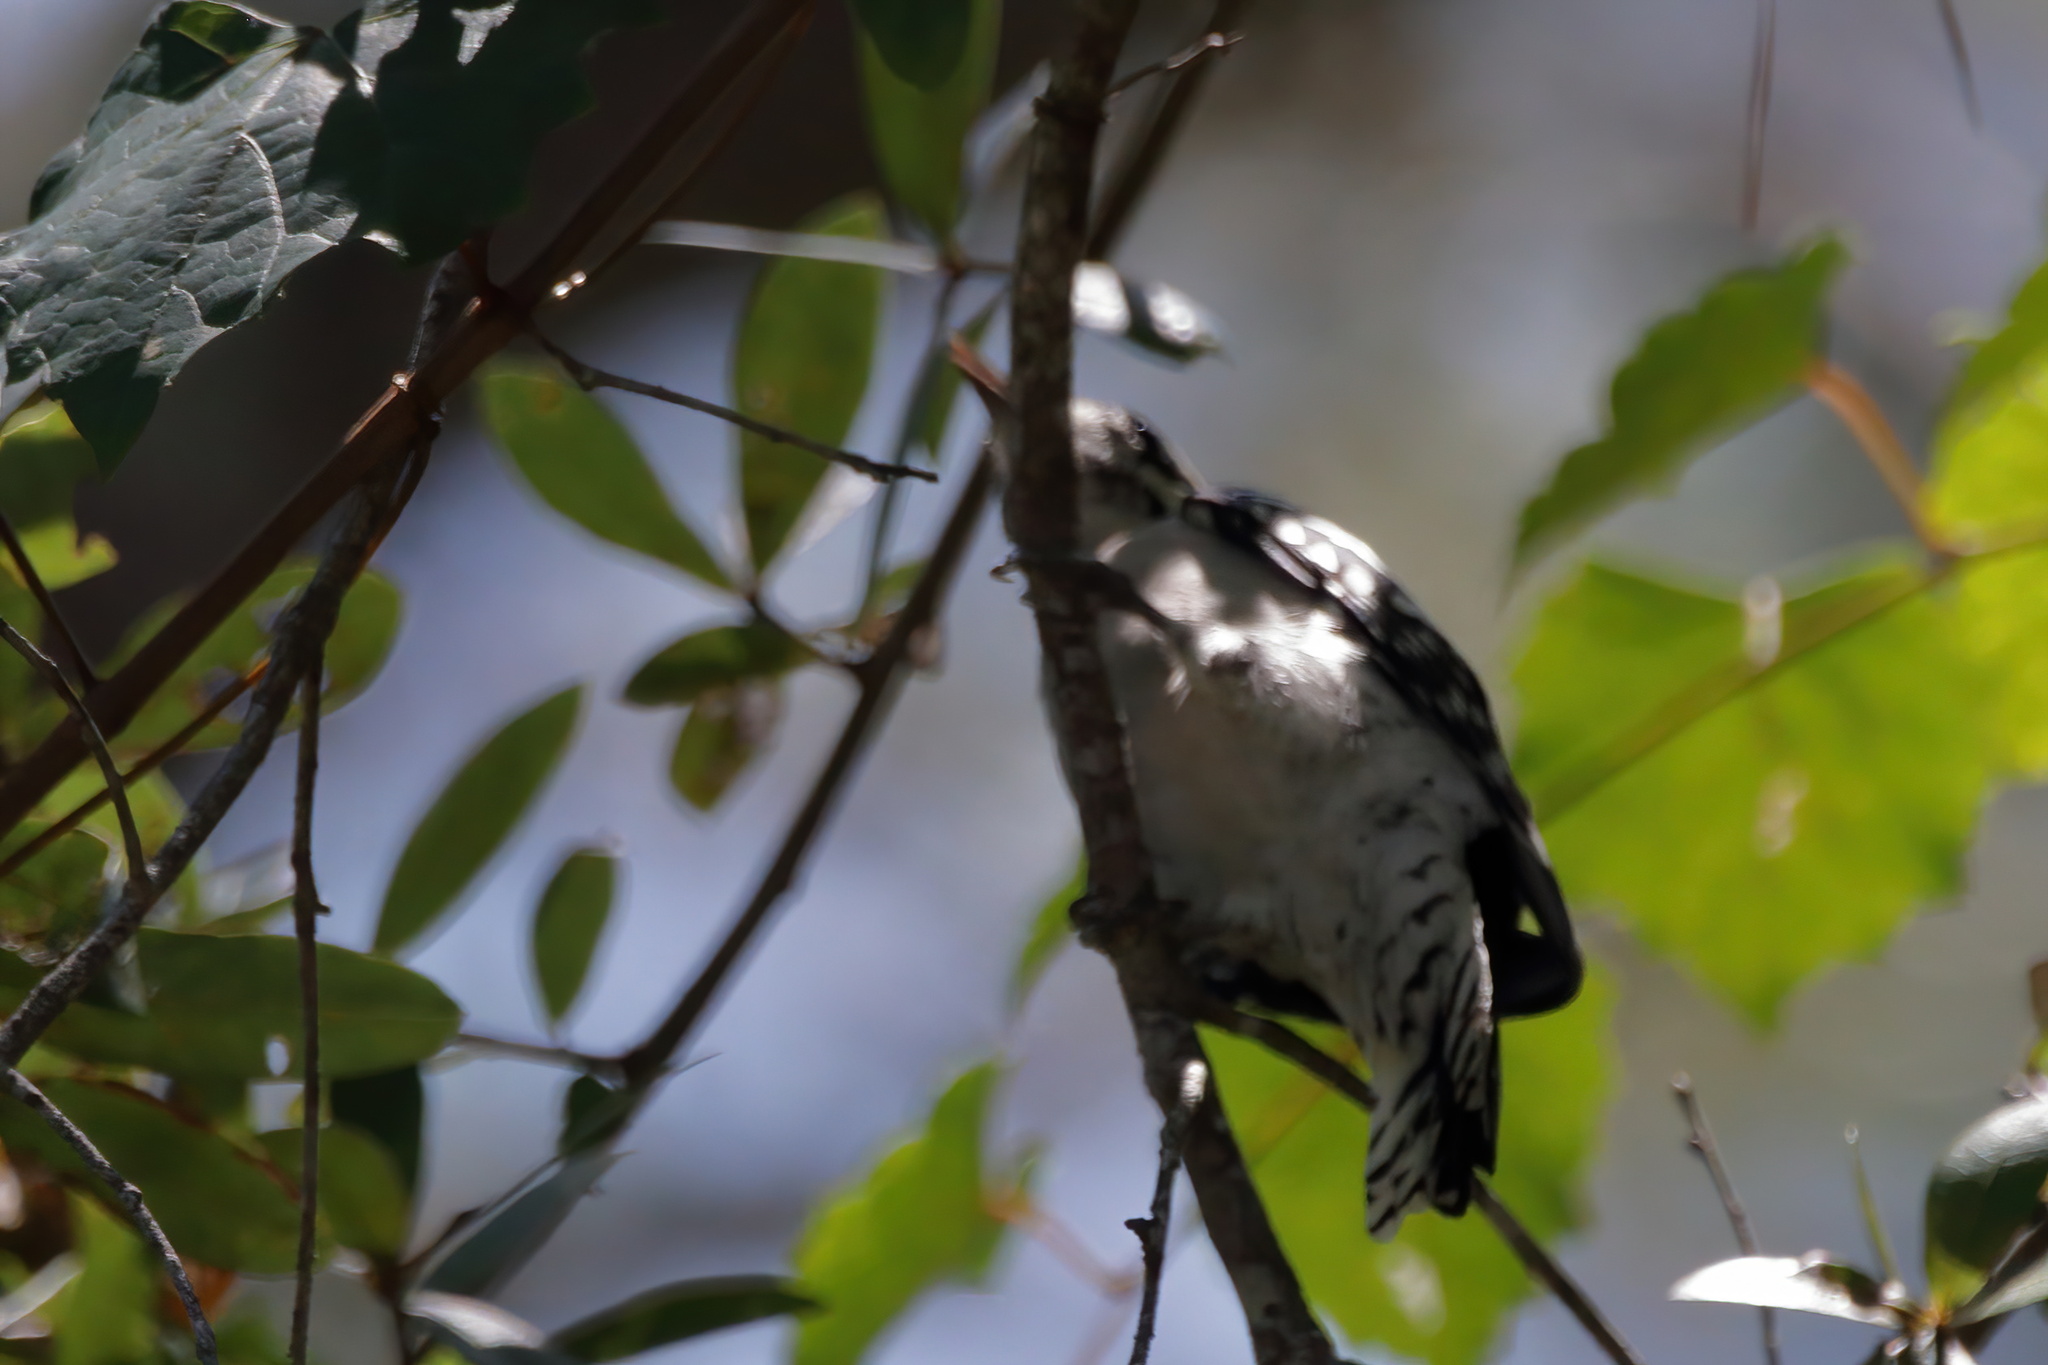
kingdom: Animalia
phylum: Chordata
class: Aves
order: Piciformes
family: Picidae
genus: Dryobates
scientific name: Dryobates pubescens
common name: Downy woodpecker
